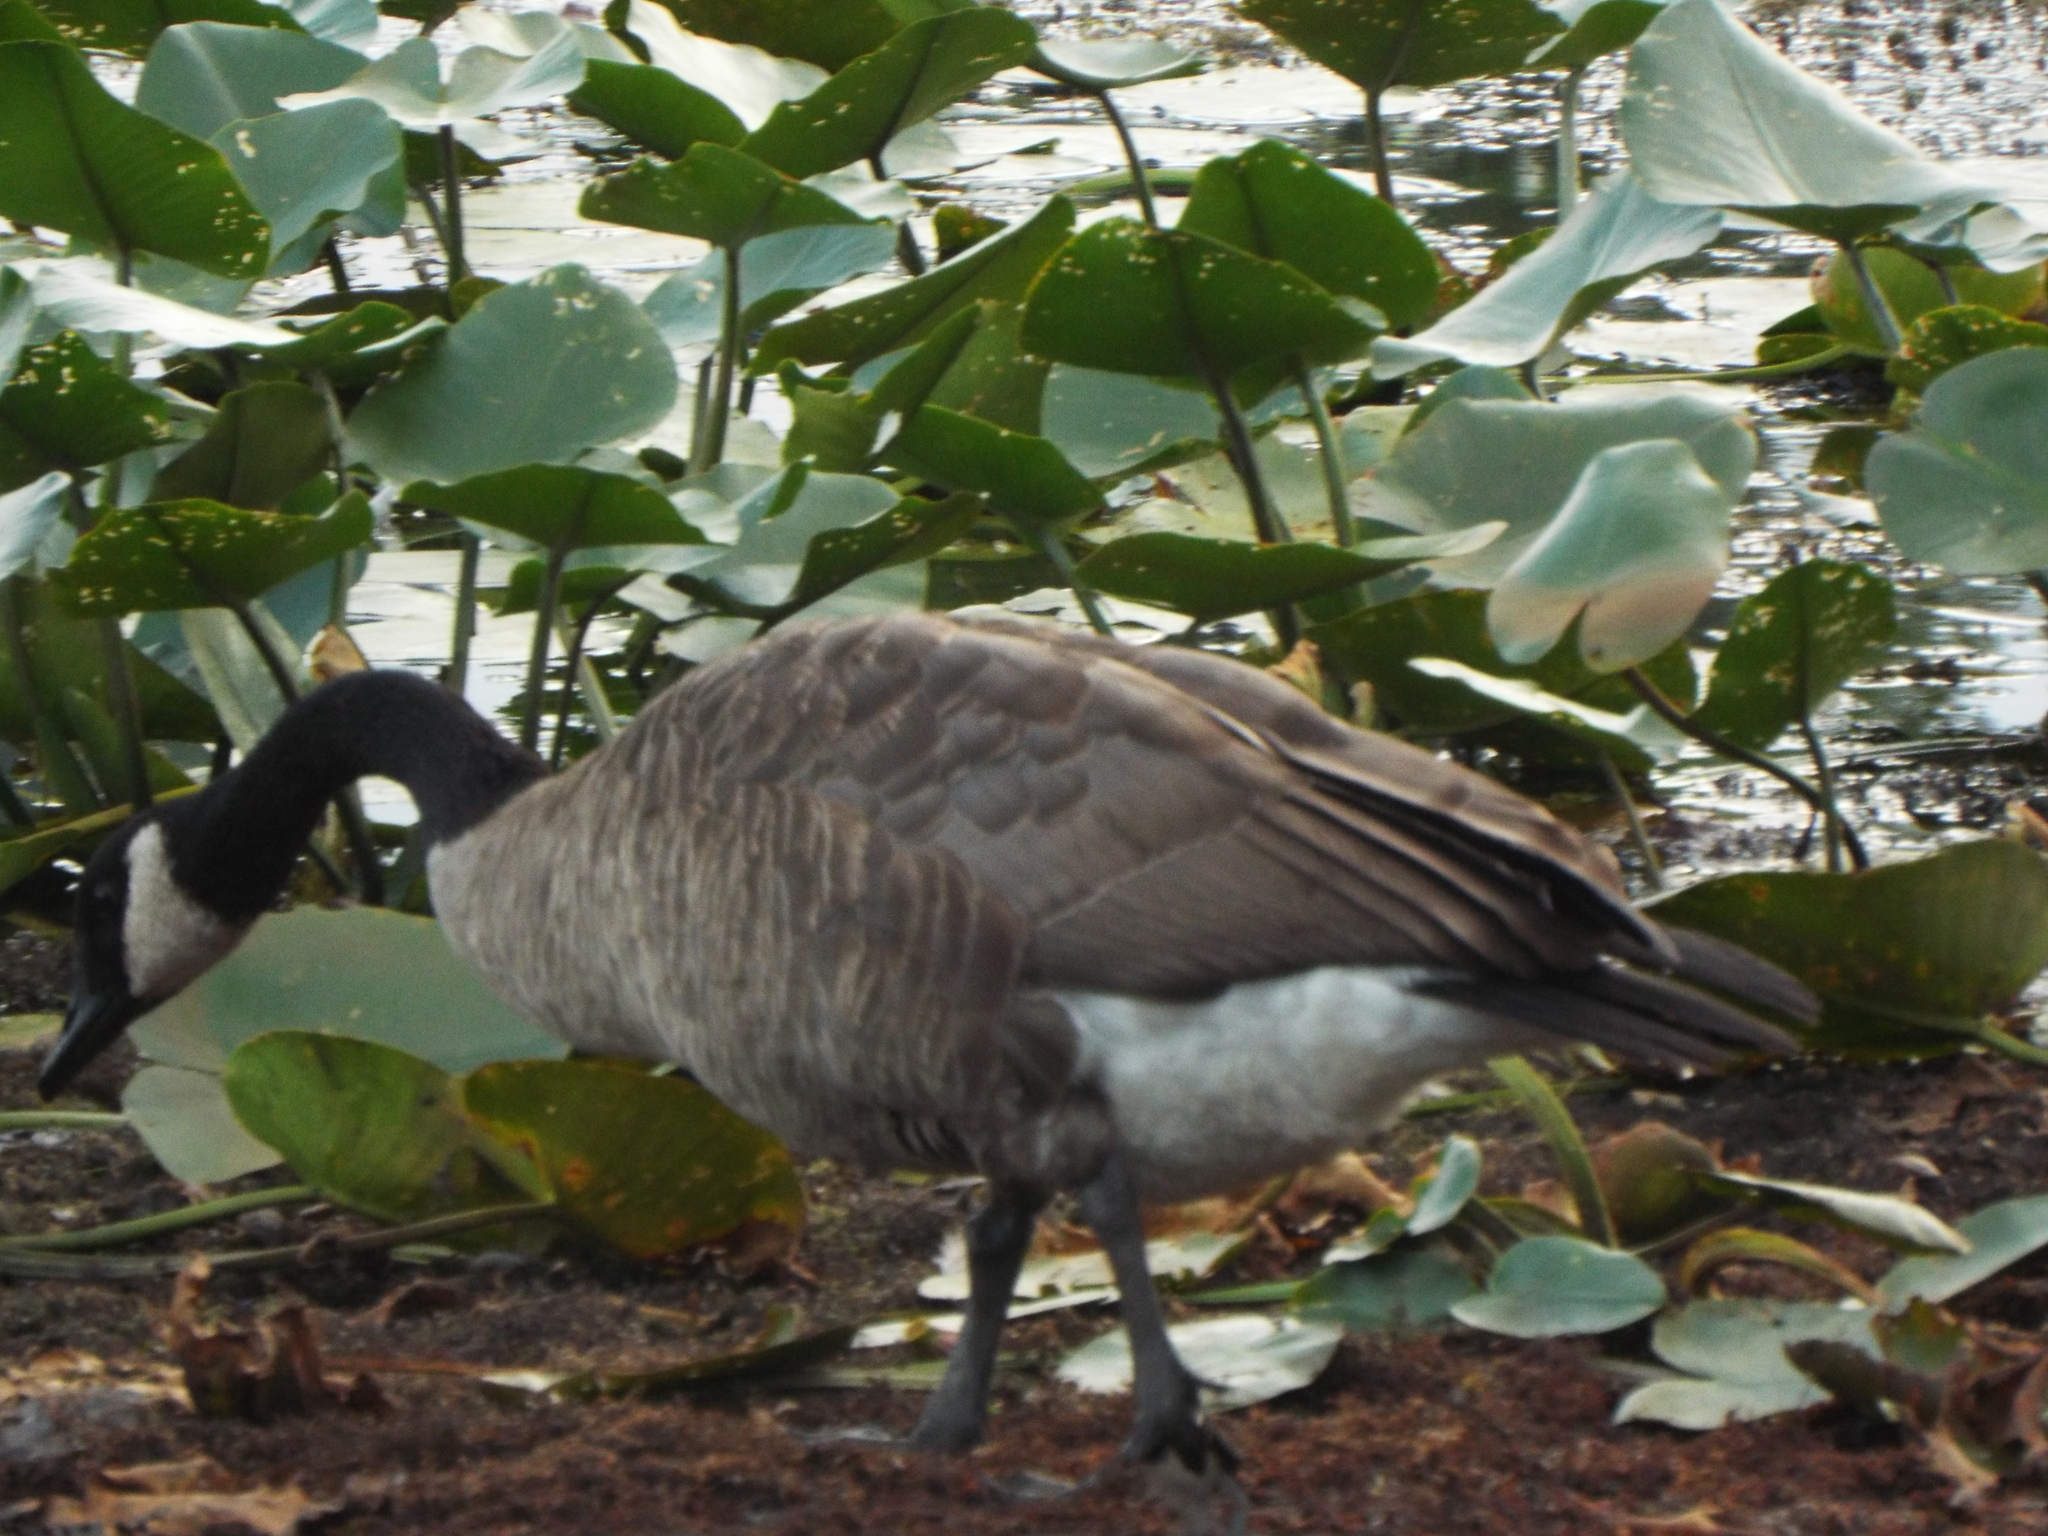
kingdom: Animalia
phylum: Chordata
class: Aves
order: Anseriformes
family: Anatidae
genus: Branta
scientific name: Branta canadensis
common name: Canada goose
